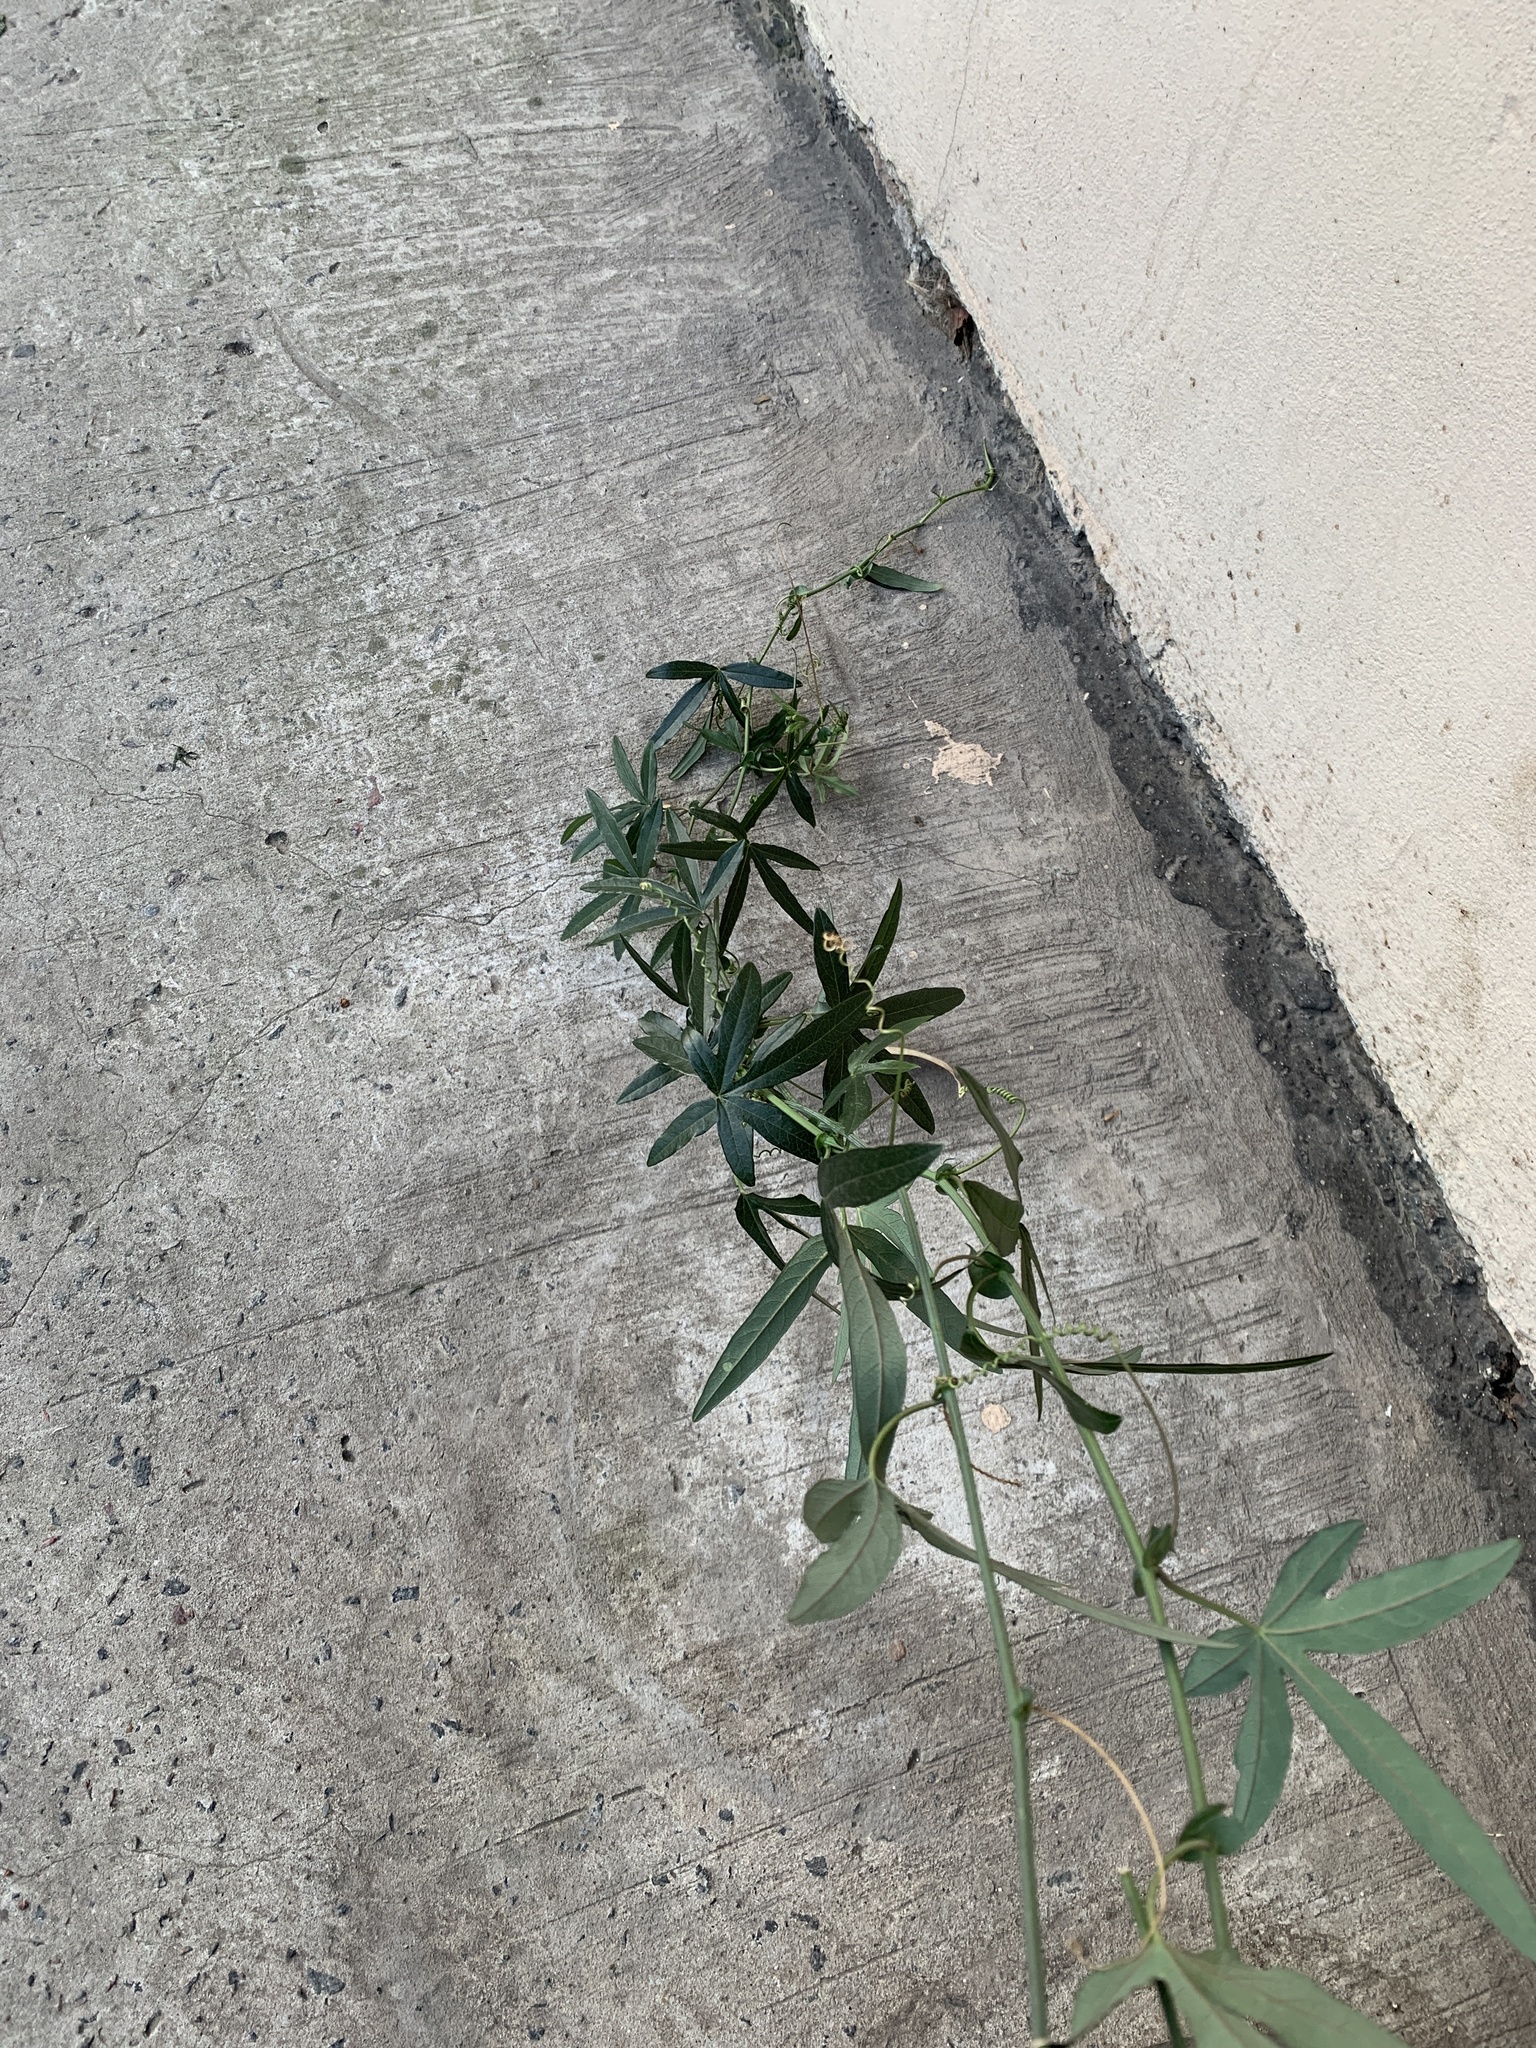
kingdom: Plantae
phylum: Tracheophyta
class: Magnoliopsida
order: Malpighiales
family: Passifloraceae
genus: Passiflora
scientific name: Passiflora caerulea
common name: Blue passionflower
